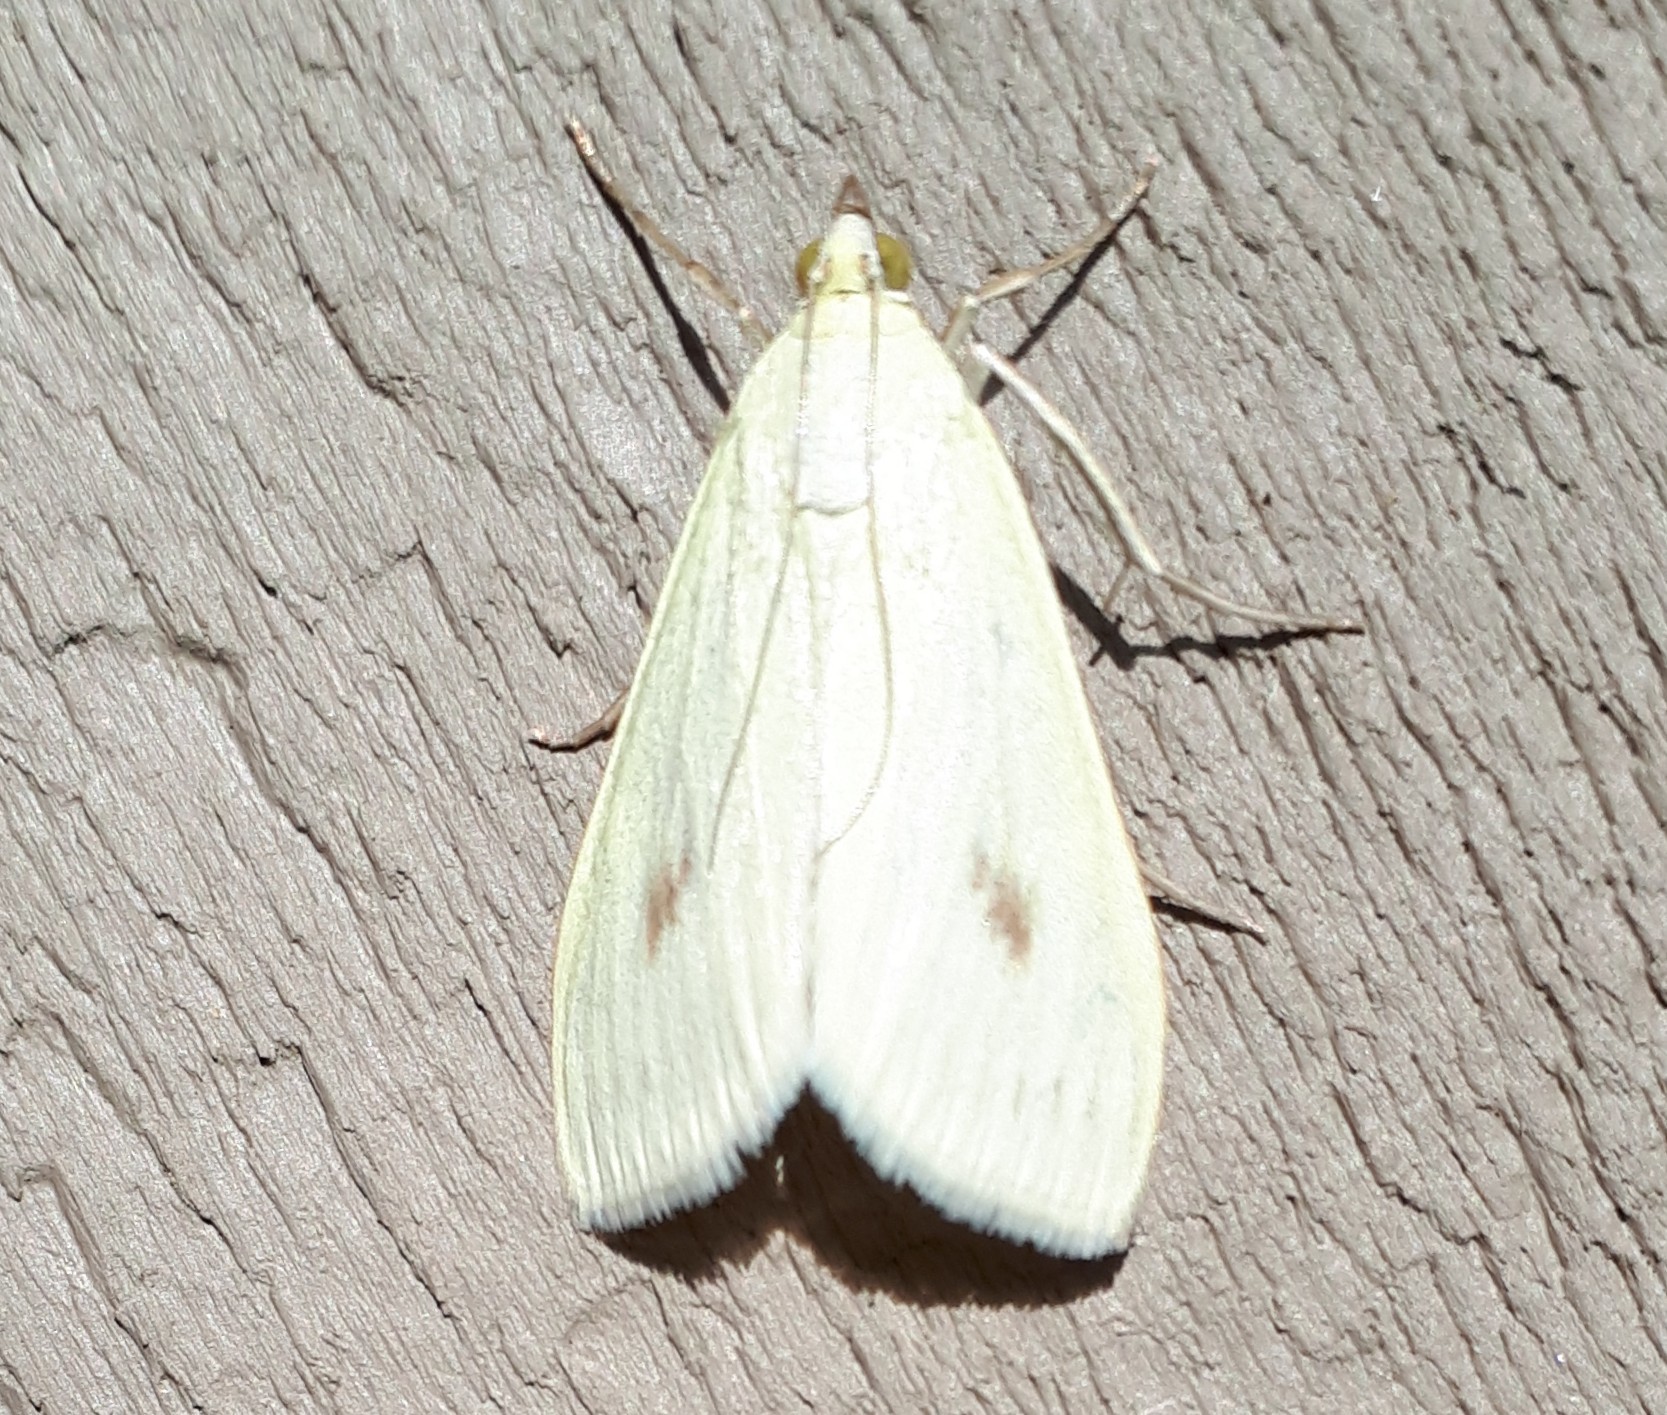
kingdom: Animalia
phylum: Arthropoda
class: Insecta
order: Lepidoptera
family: Crambidae
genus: Sitochroa
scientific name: Sitochroa palealis
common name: Greenish-yellow sitochroa moth
